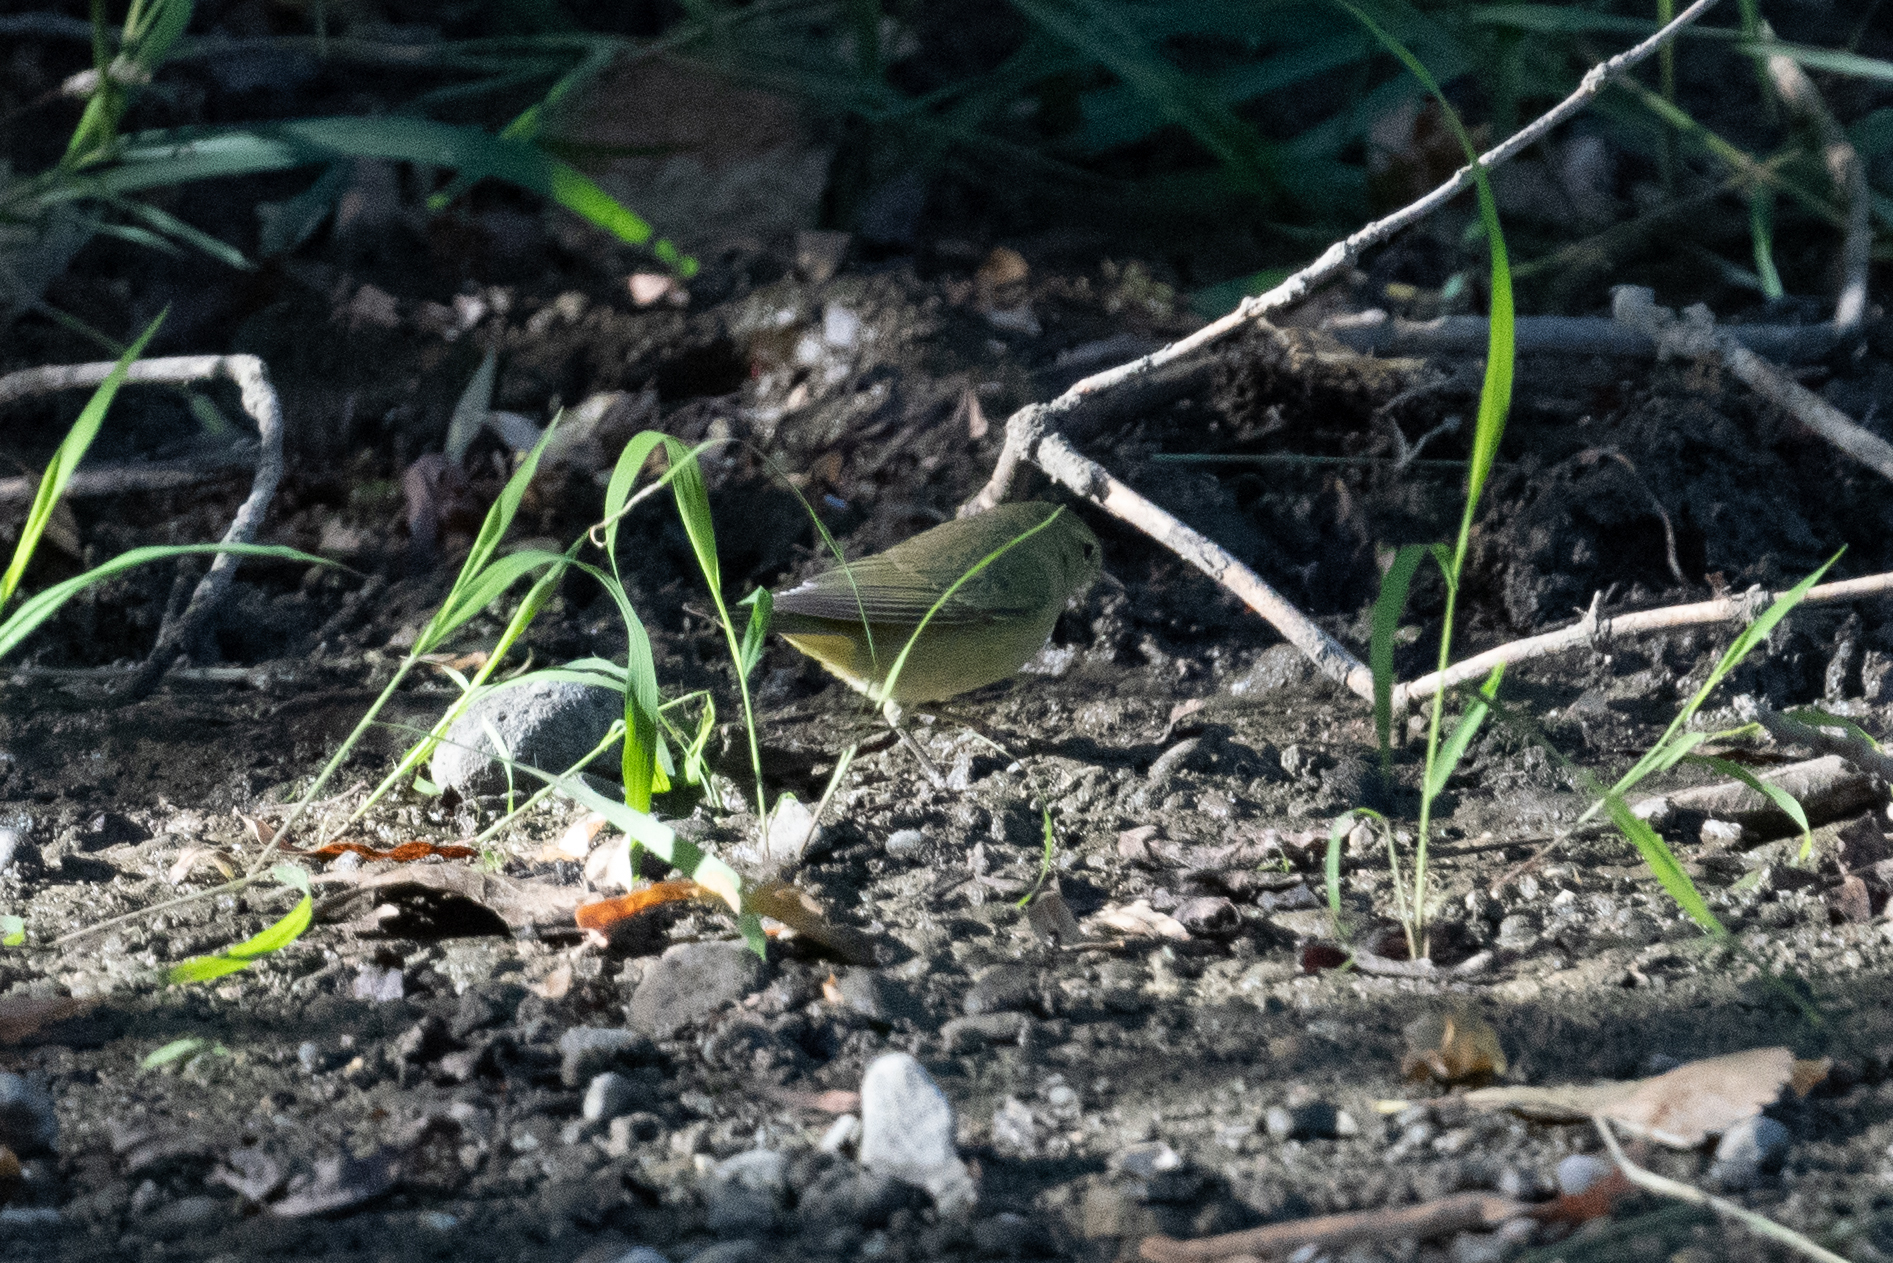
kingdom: Animalia
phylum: Chordata
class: Aves
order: Passeriformes
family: Parulidae
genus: Leiothlypis
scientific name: Leiothlypis celata
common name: Orange-crowned warbler
